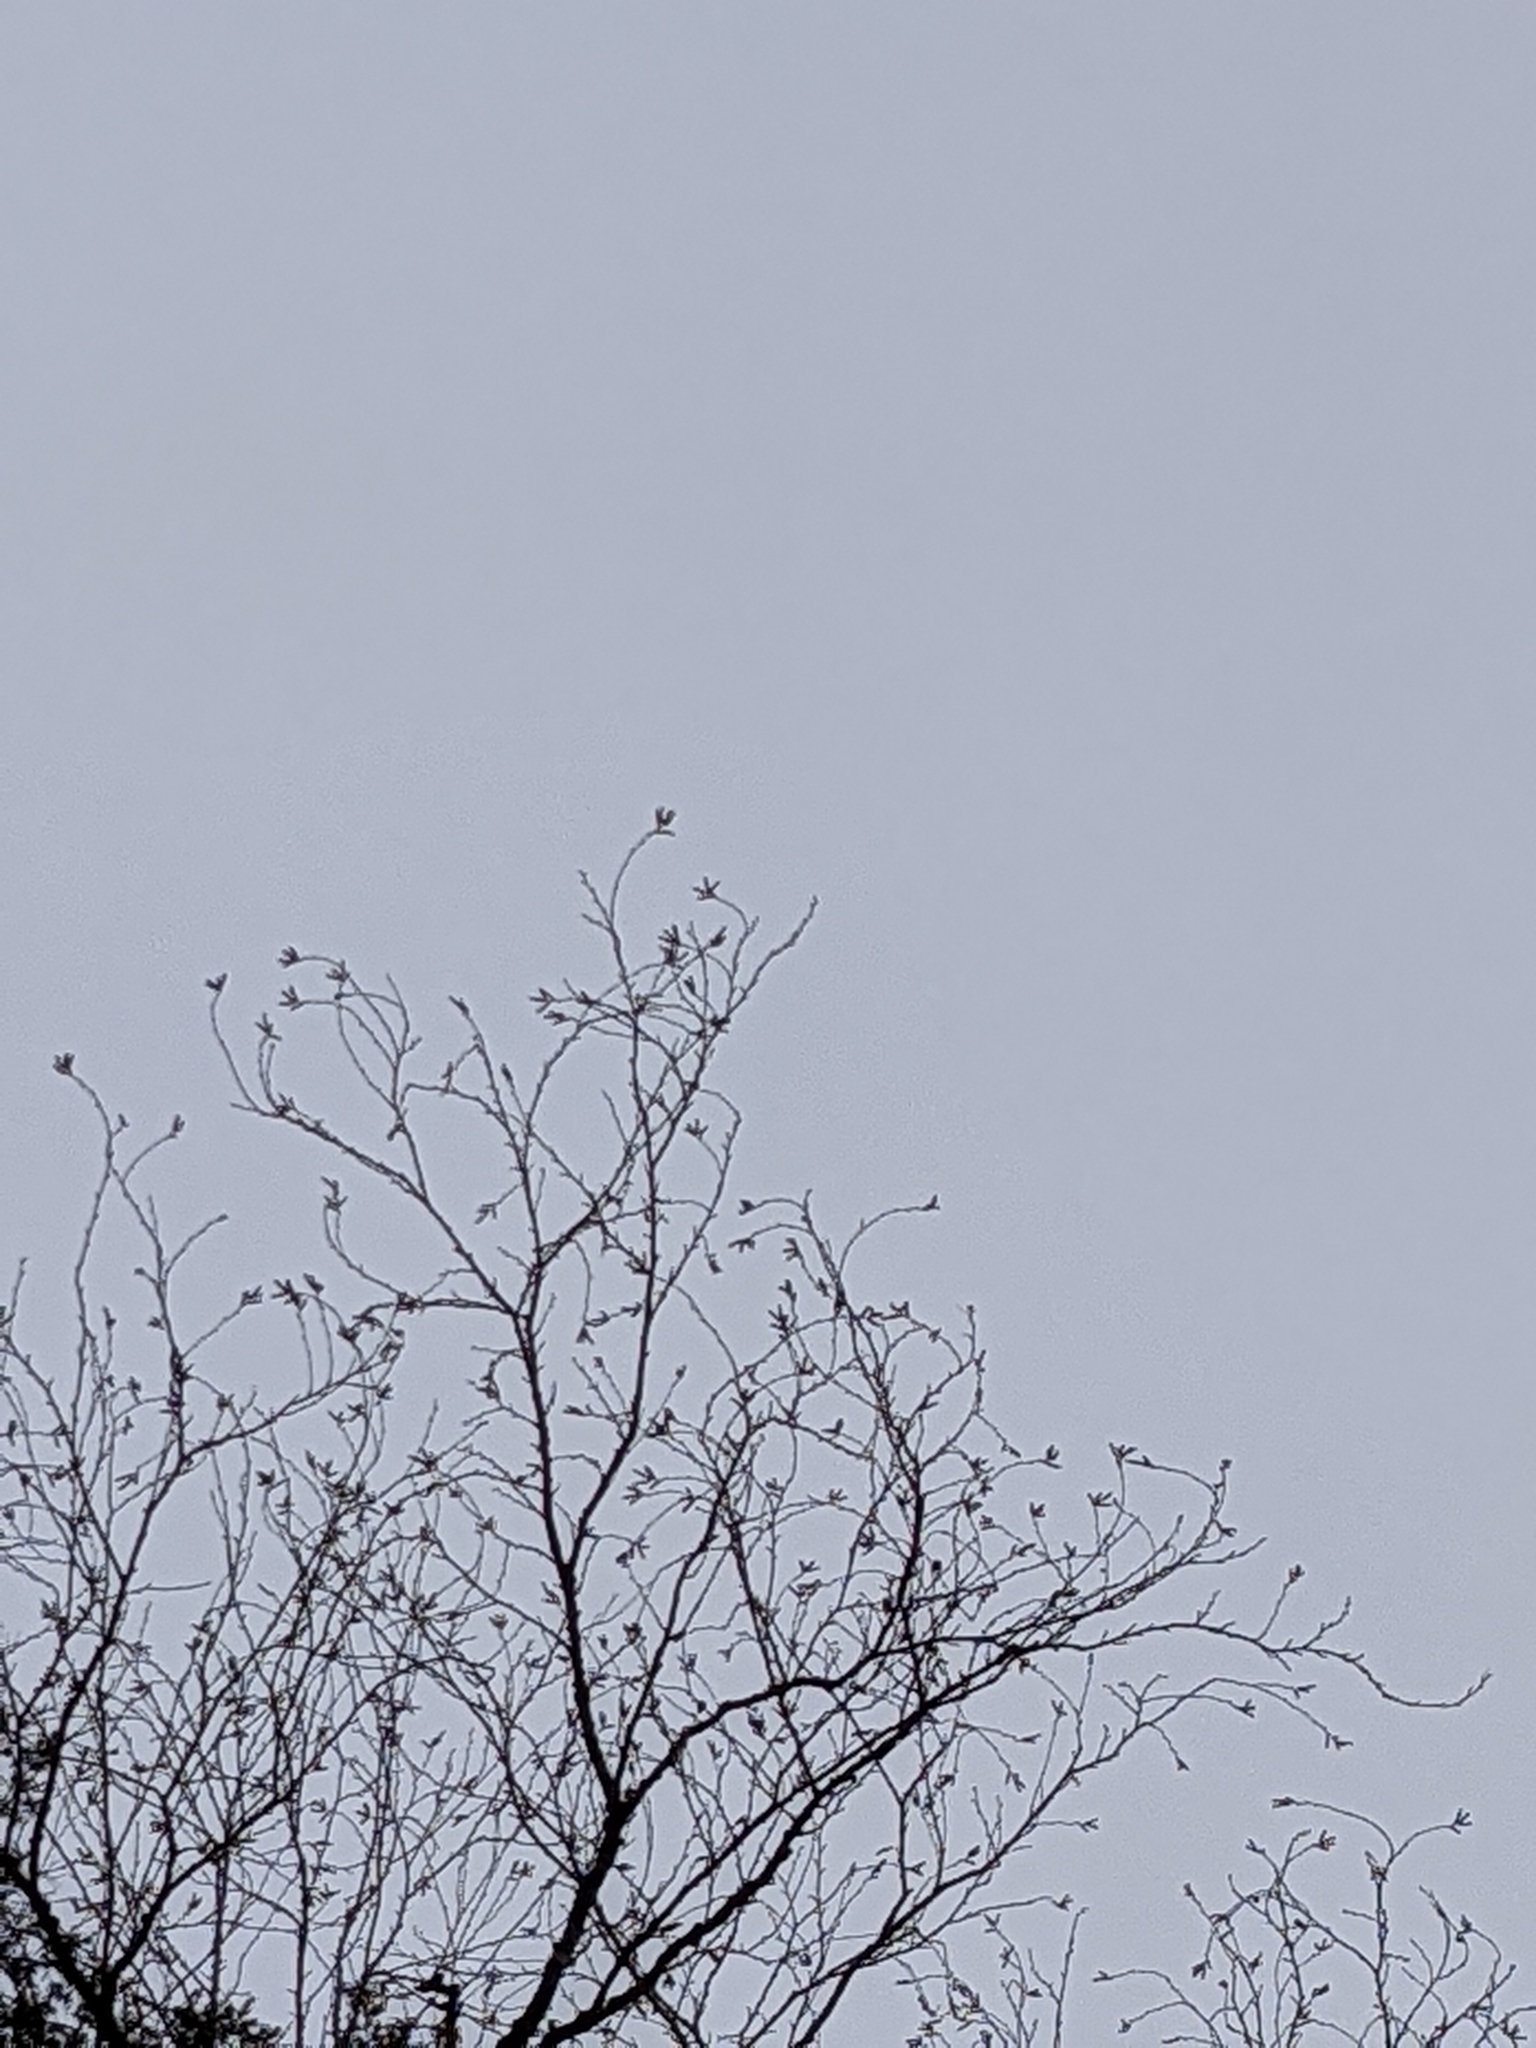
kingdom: Plantae
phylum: Tracheophyta
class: Magnoliopsida
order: Fagales
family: Betulaceae
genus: Betula
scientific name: Betula alleghaniensis
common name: Yellow birch
